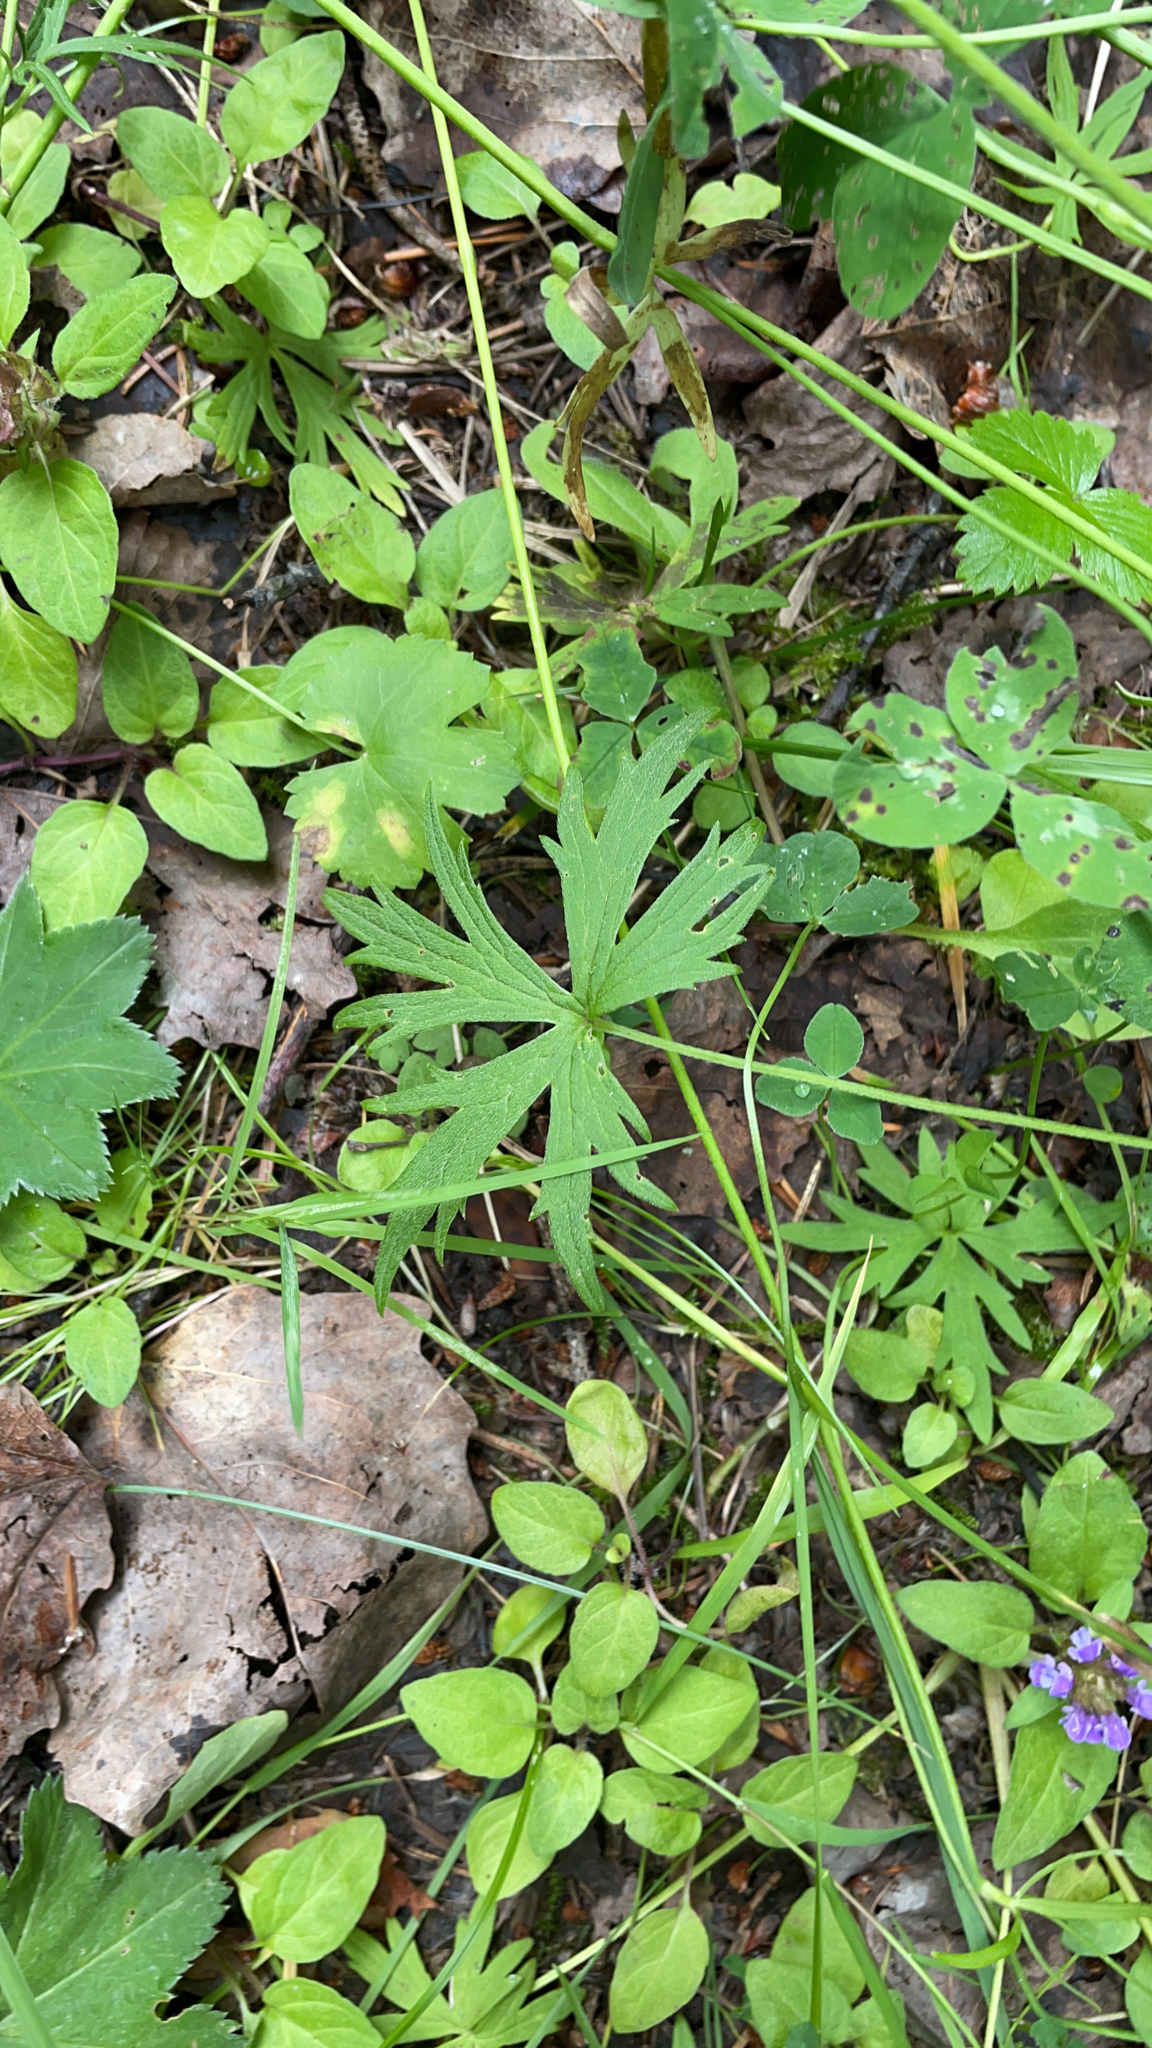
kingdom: Plantae
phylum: Tracheophyta
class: Magnoliopsida
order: Ranunculales
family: Ranunculaceae
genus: Ranunculus
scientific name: Ranunculus acris
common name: Meadow buttercup
